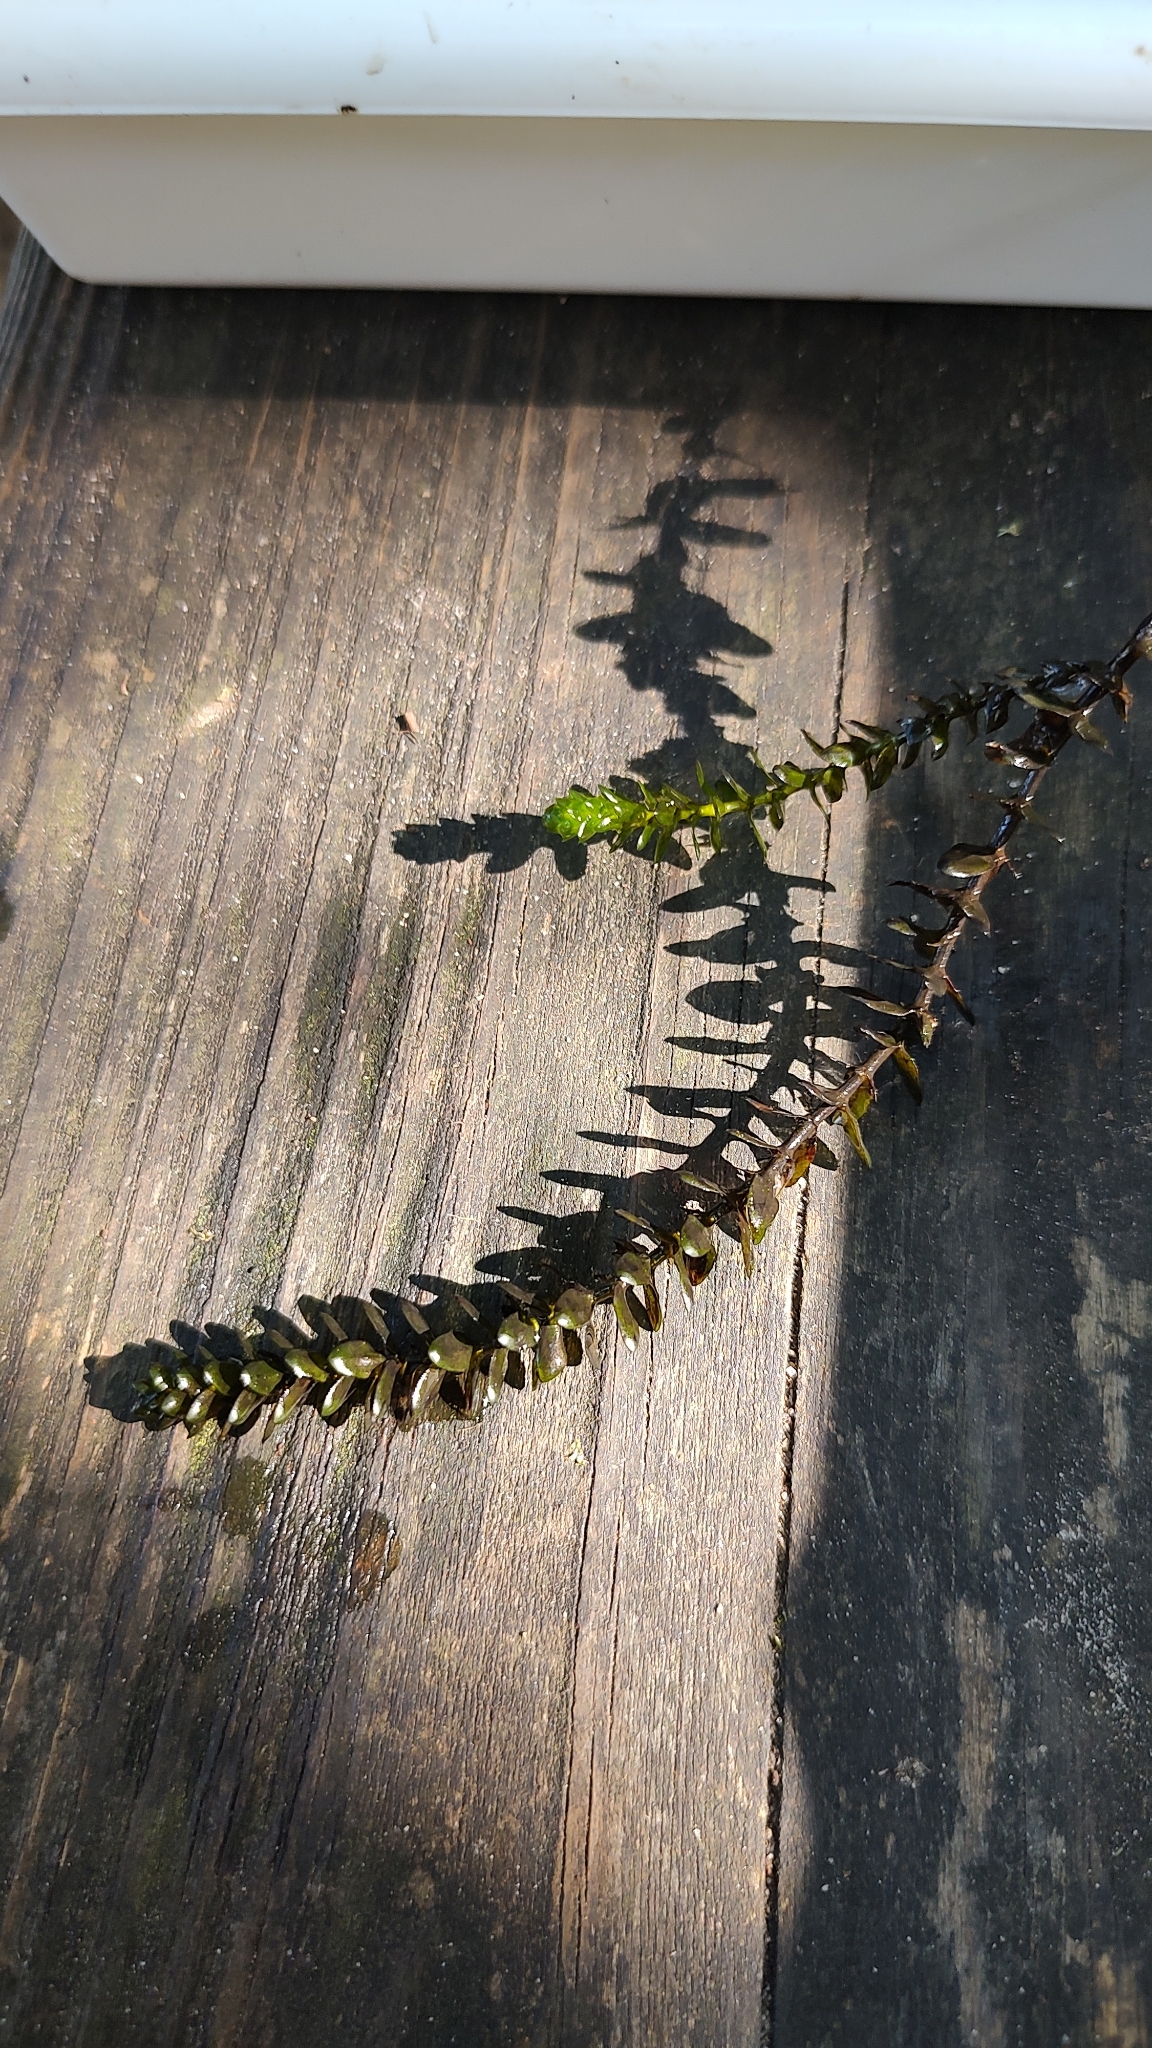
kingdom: Plantae
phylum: Tracheophyta
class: Liliopsida
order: Alismatales
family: Hydrocharitaceae
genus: Elodea
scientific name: Elodea canadensis
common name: Canadian waterweed
